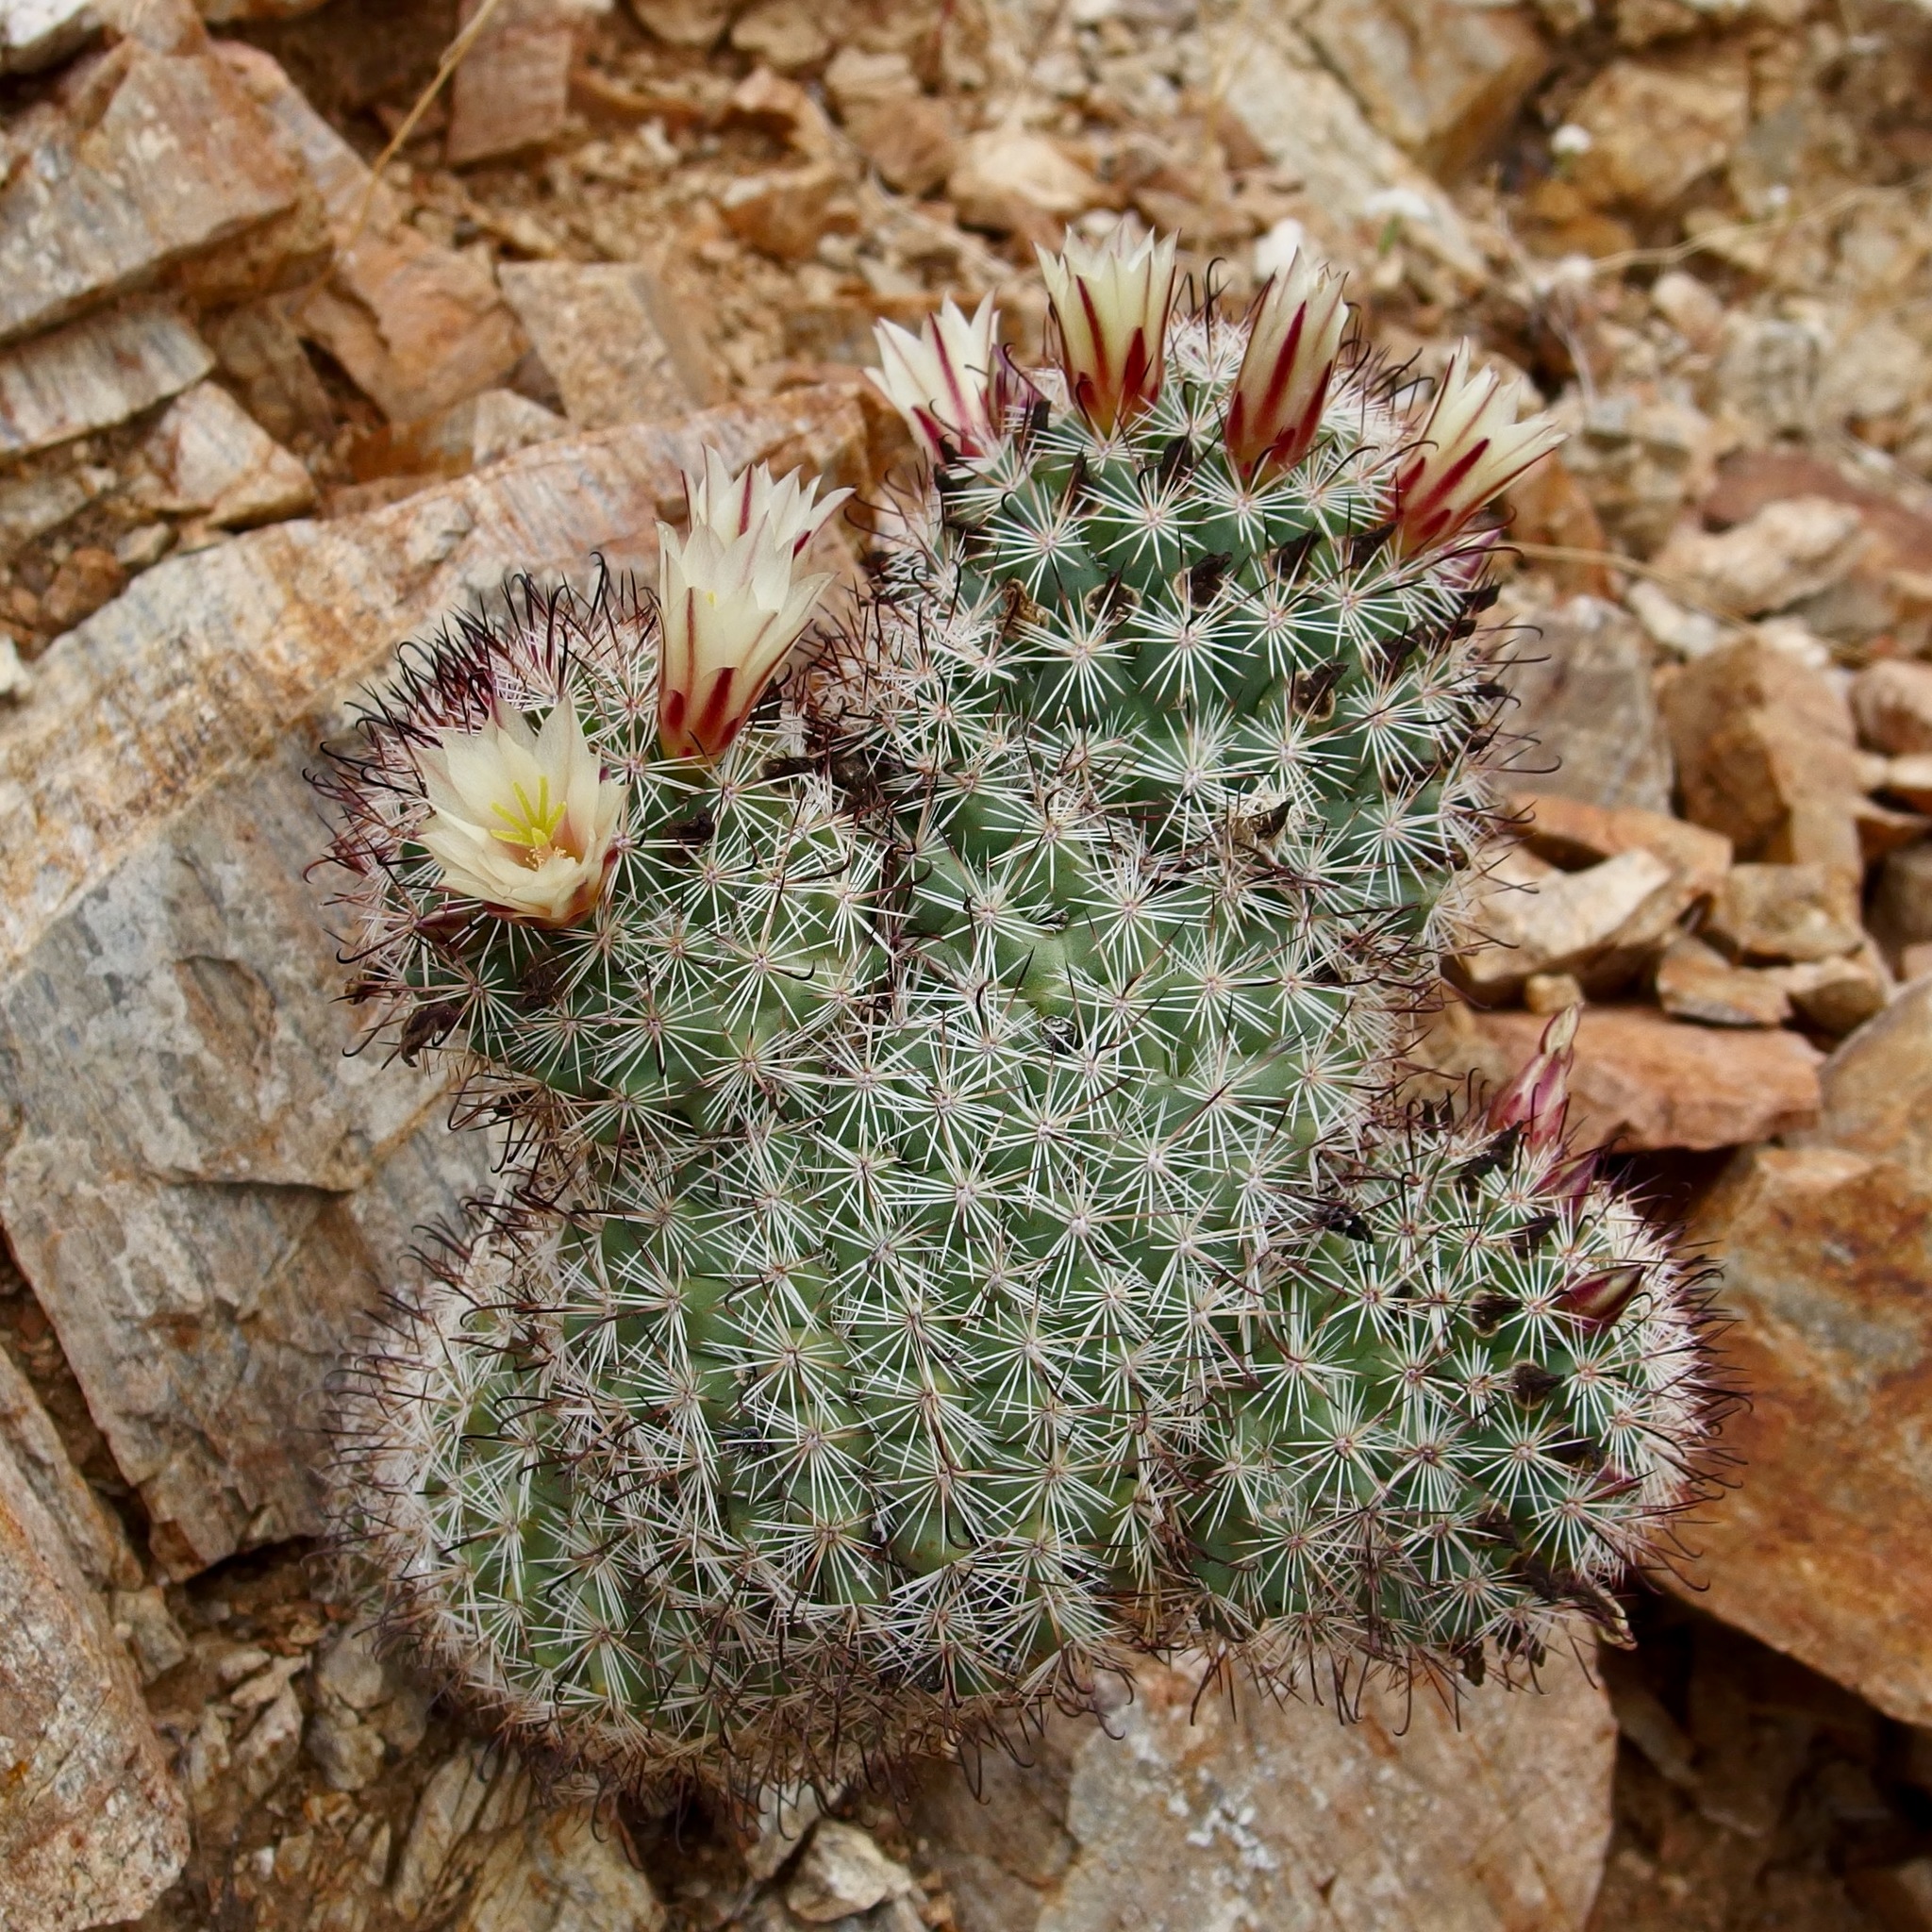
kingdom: Plantae
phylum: Tracheophyta
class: Magnoliopsida
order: Caryophyllales
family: Cactaceae
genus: Cochemiea
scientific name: Cochemiea dioica
